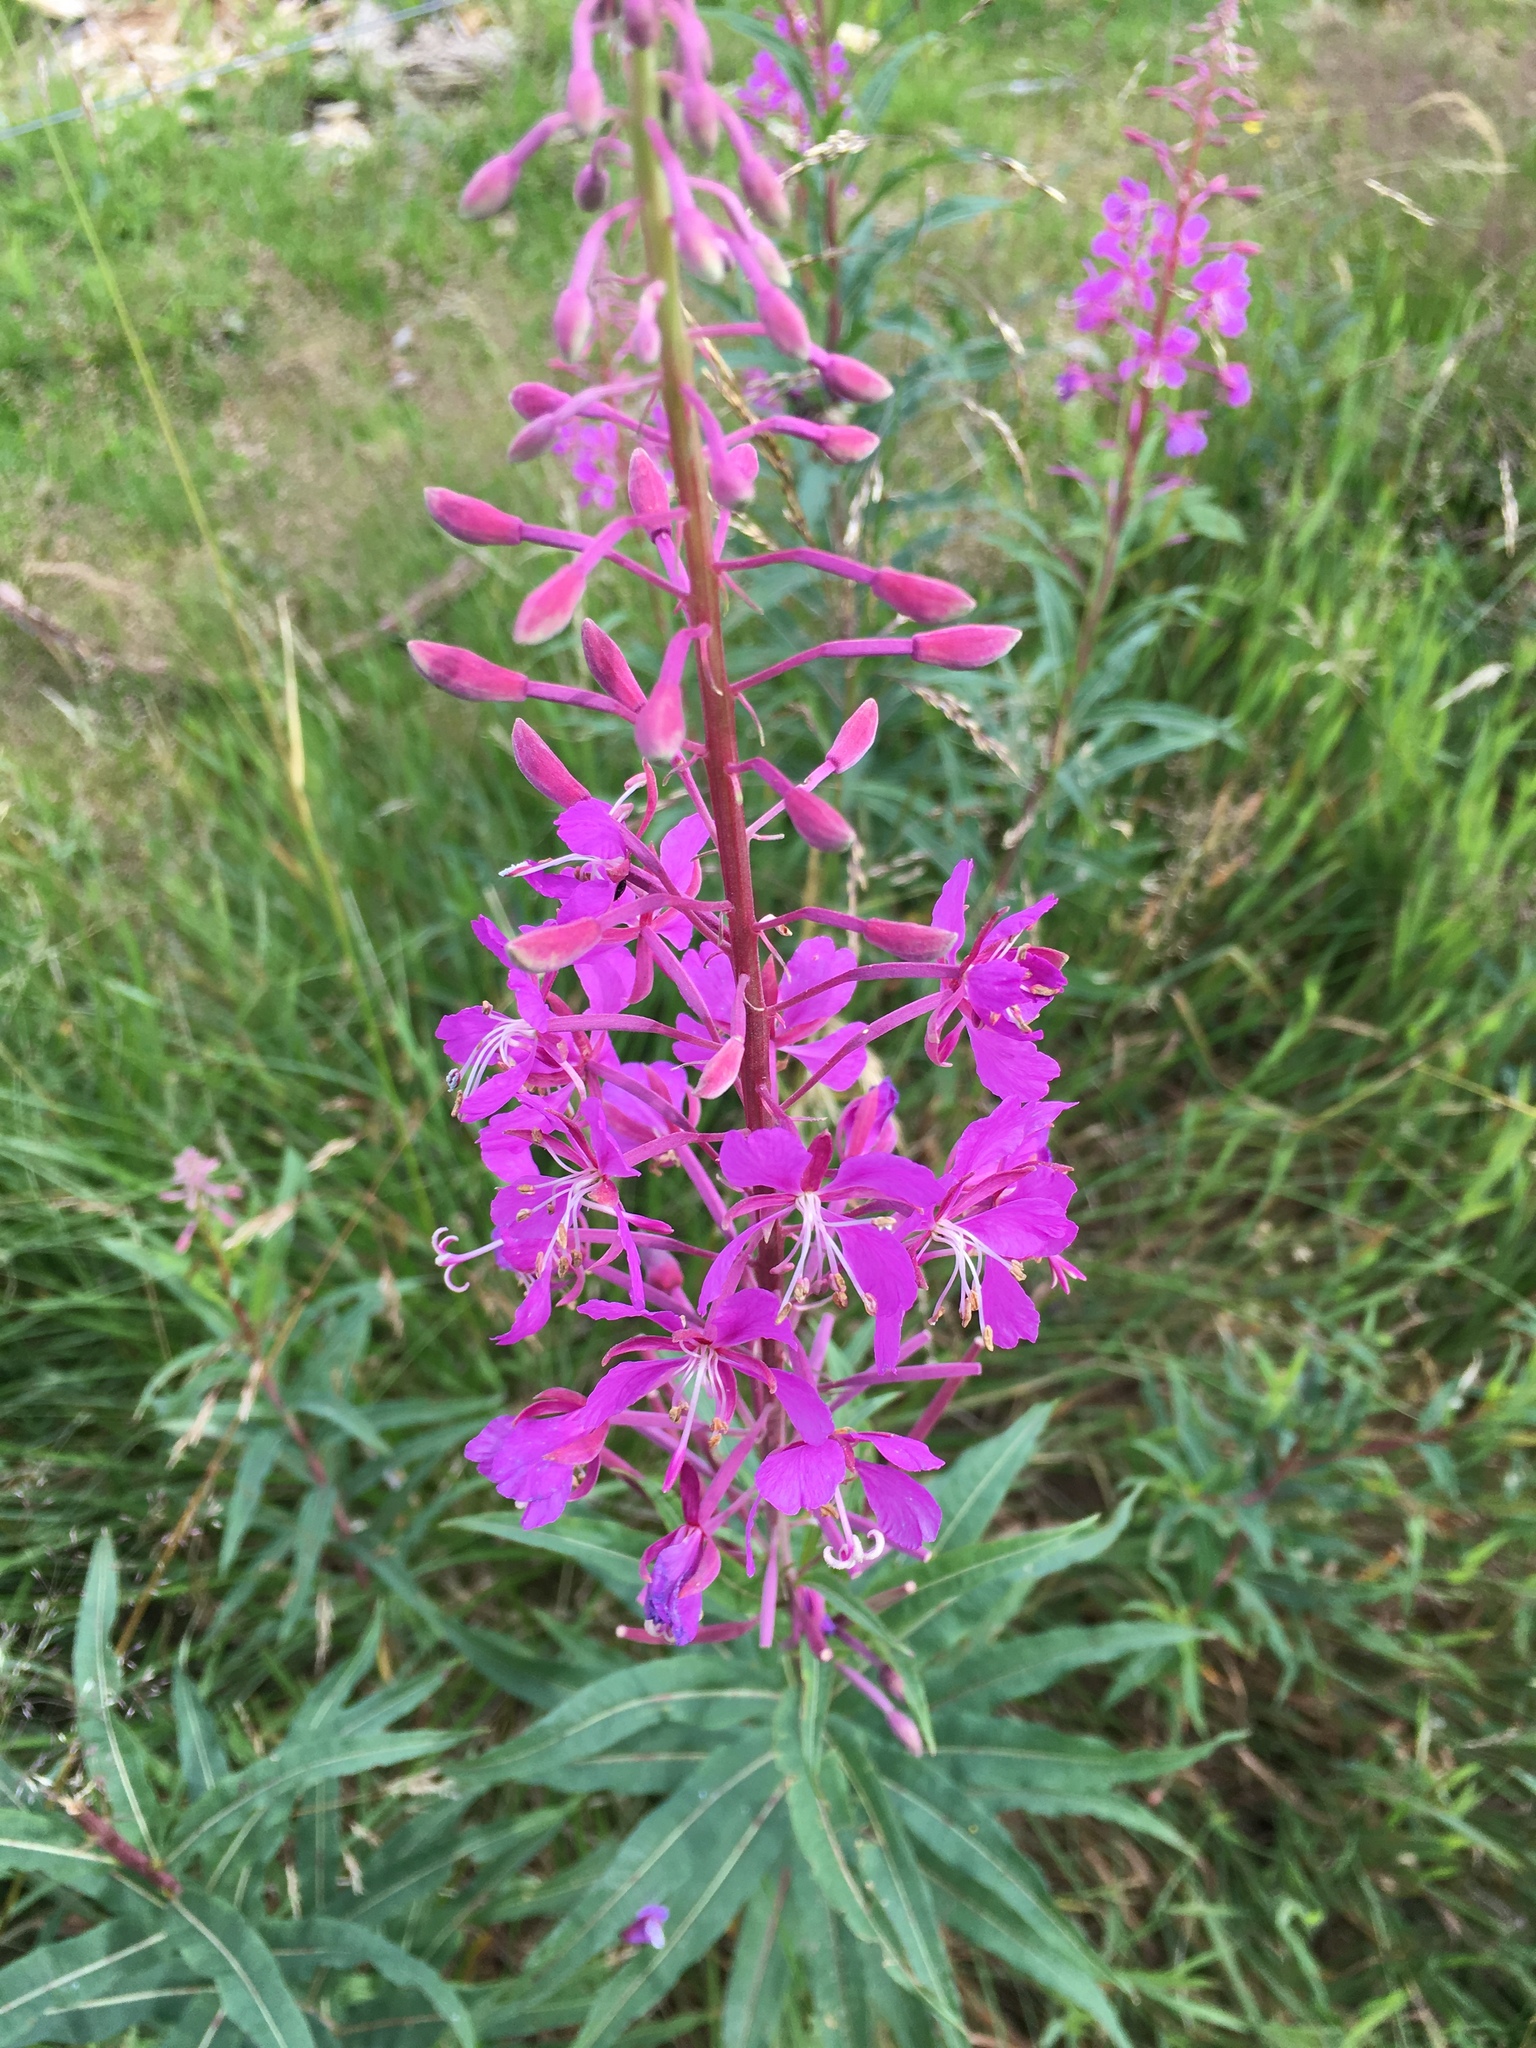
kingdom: Plantae
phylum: Tracheophyta
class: Magnoliopsida
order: Myrtales
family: Onagraceae
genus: Chamaenerion
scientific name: Chamaenerion angustifolium
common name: Fireweed
